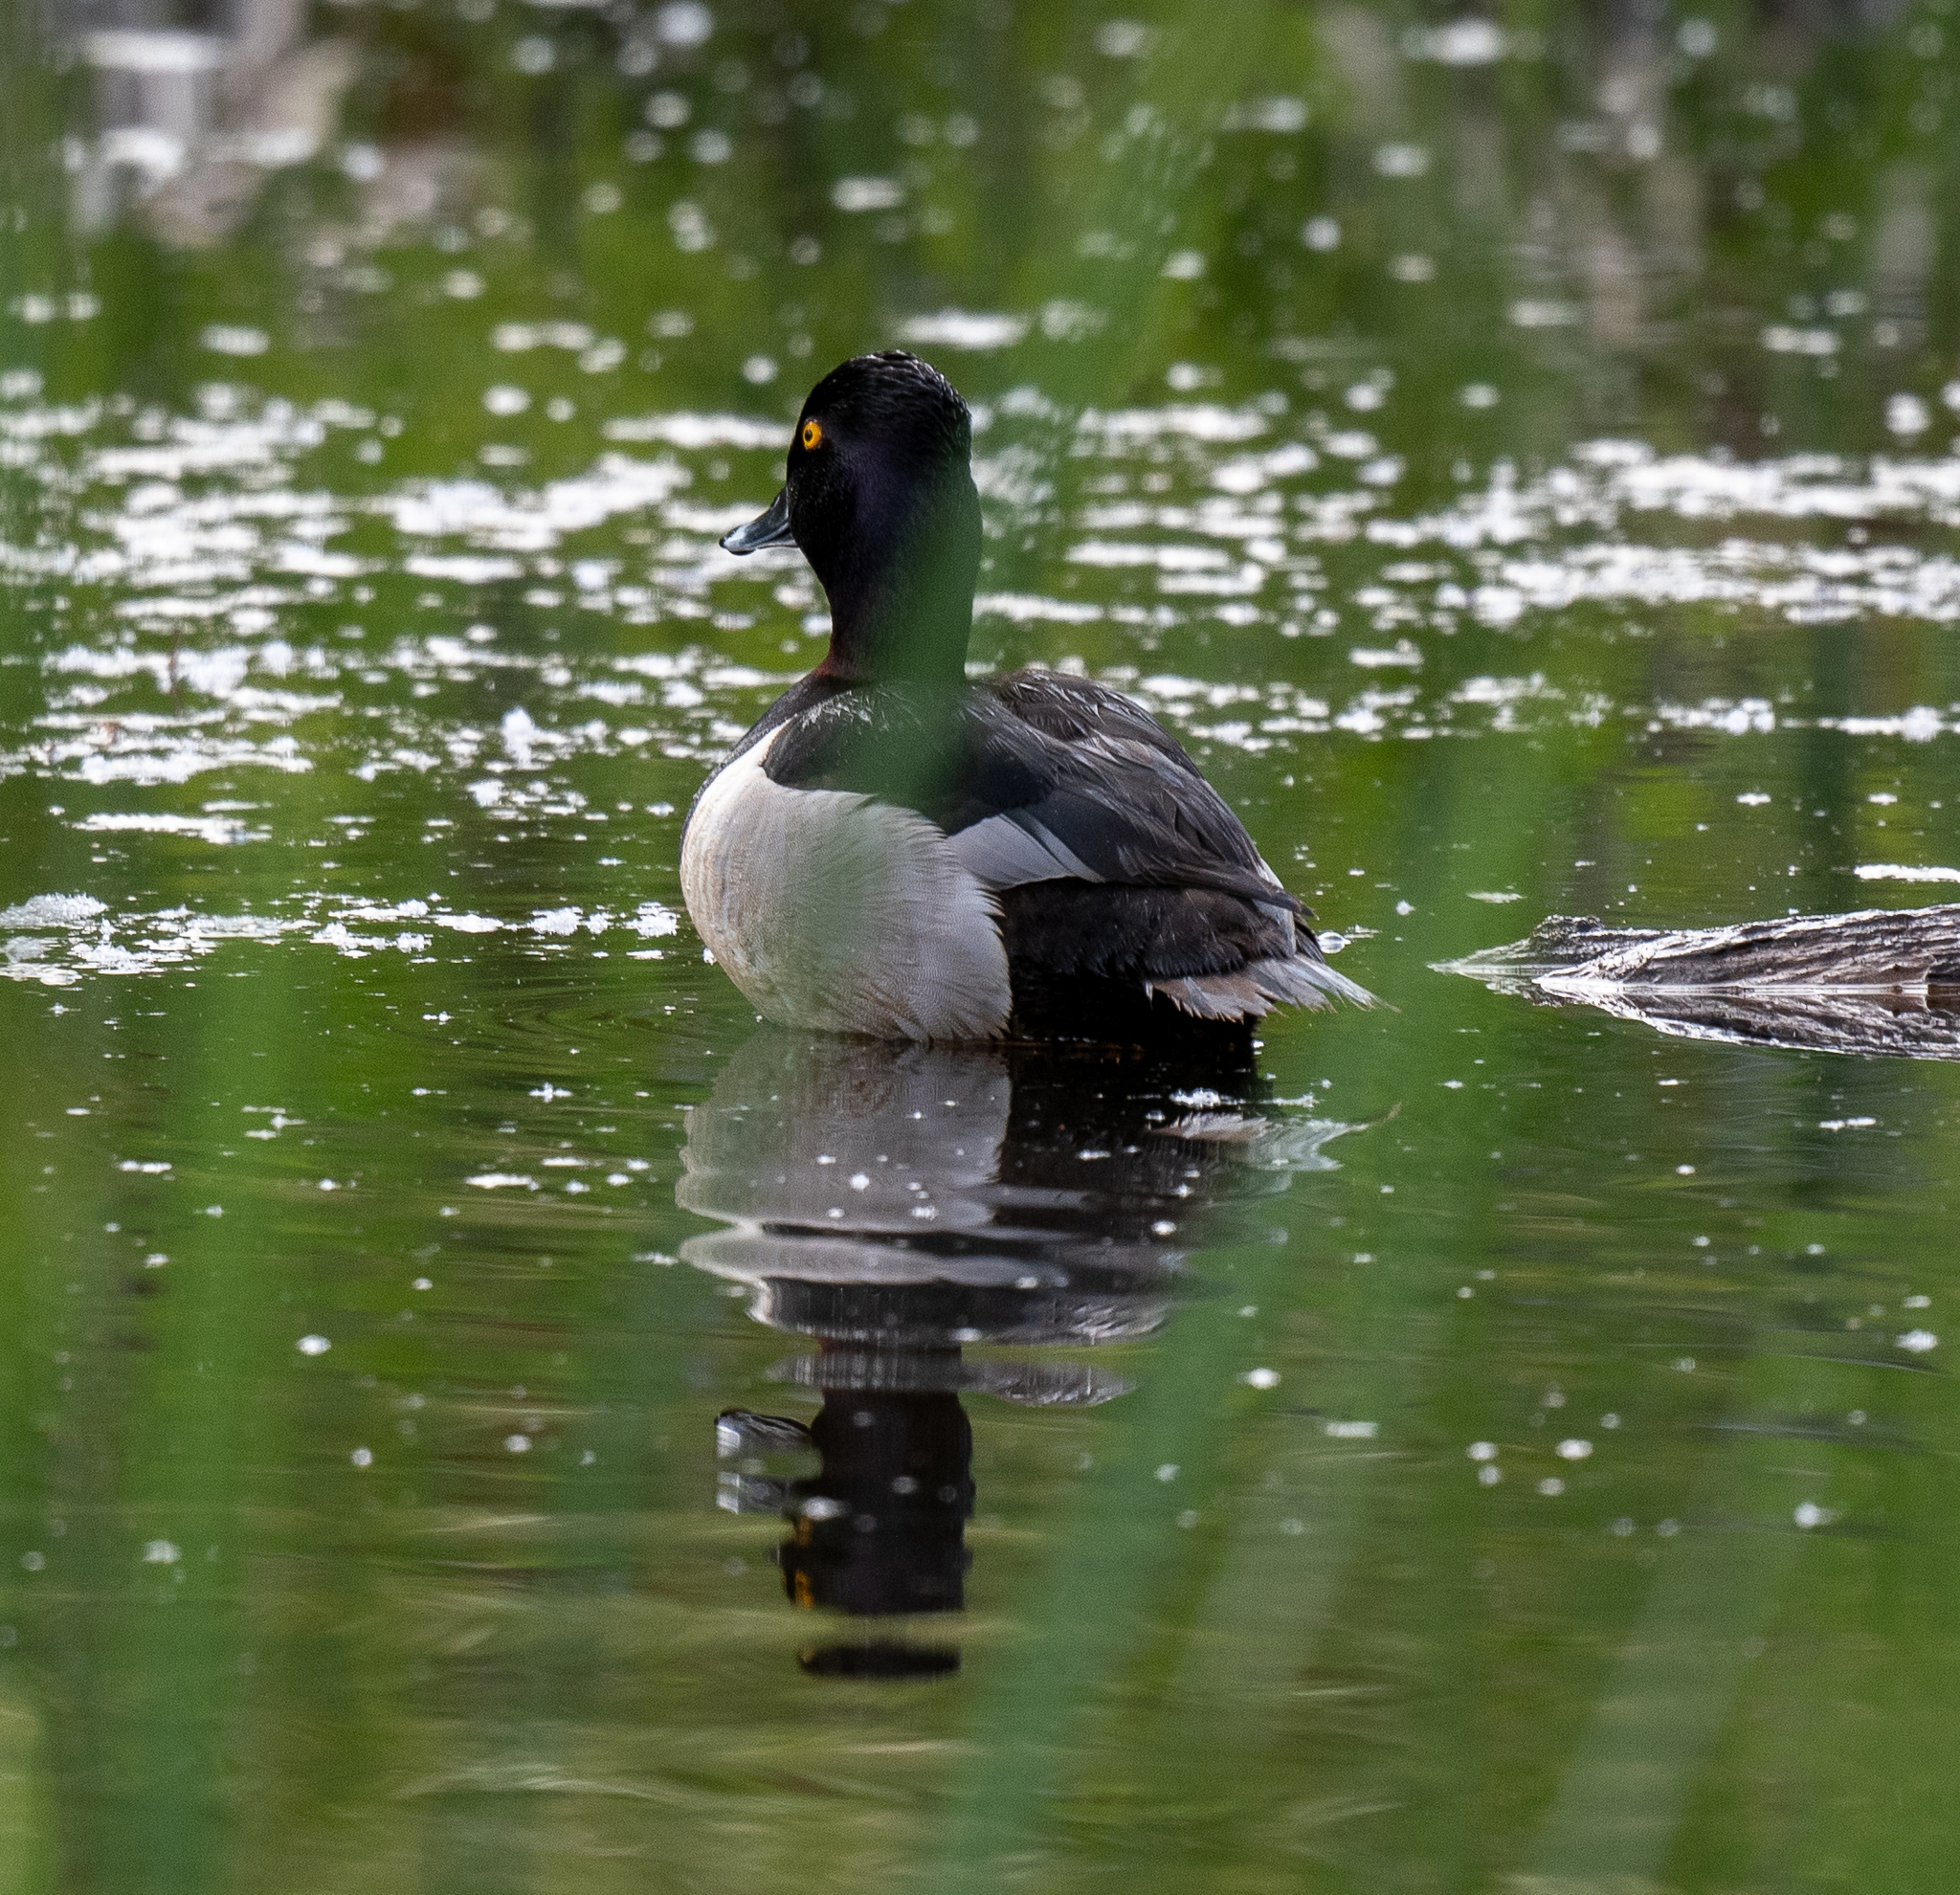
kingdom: Animalia
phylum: Chordata
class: Aves
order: Anseriformes
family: Anatidae
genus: Aythya
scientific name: Aythya collaris
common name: Ring-necked duck
